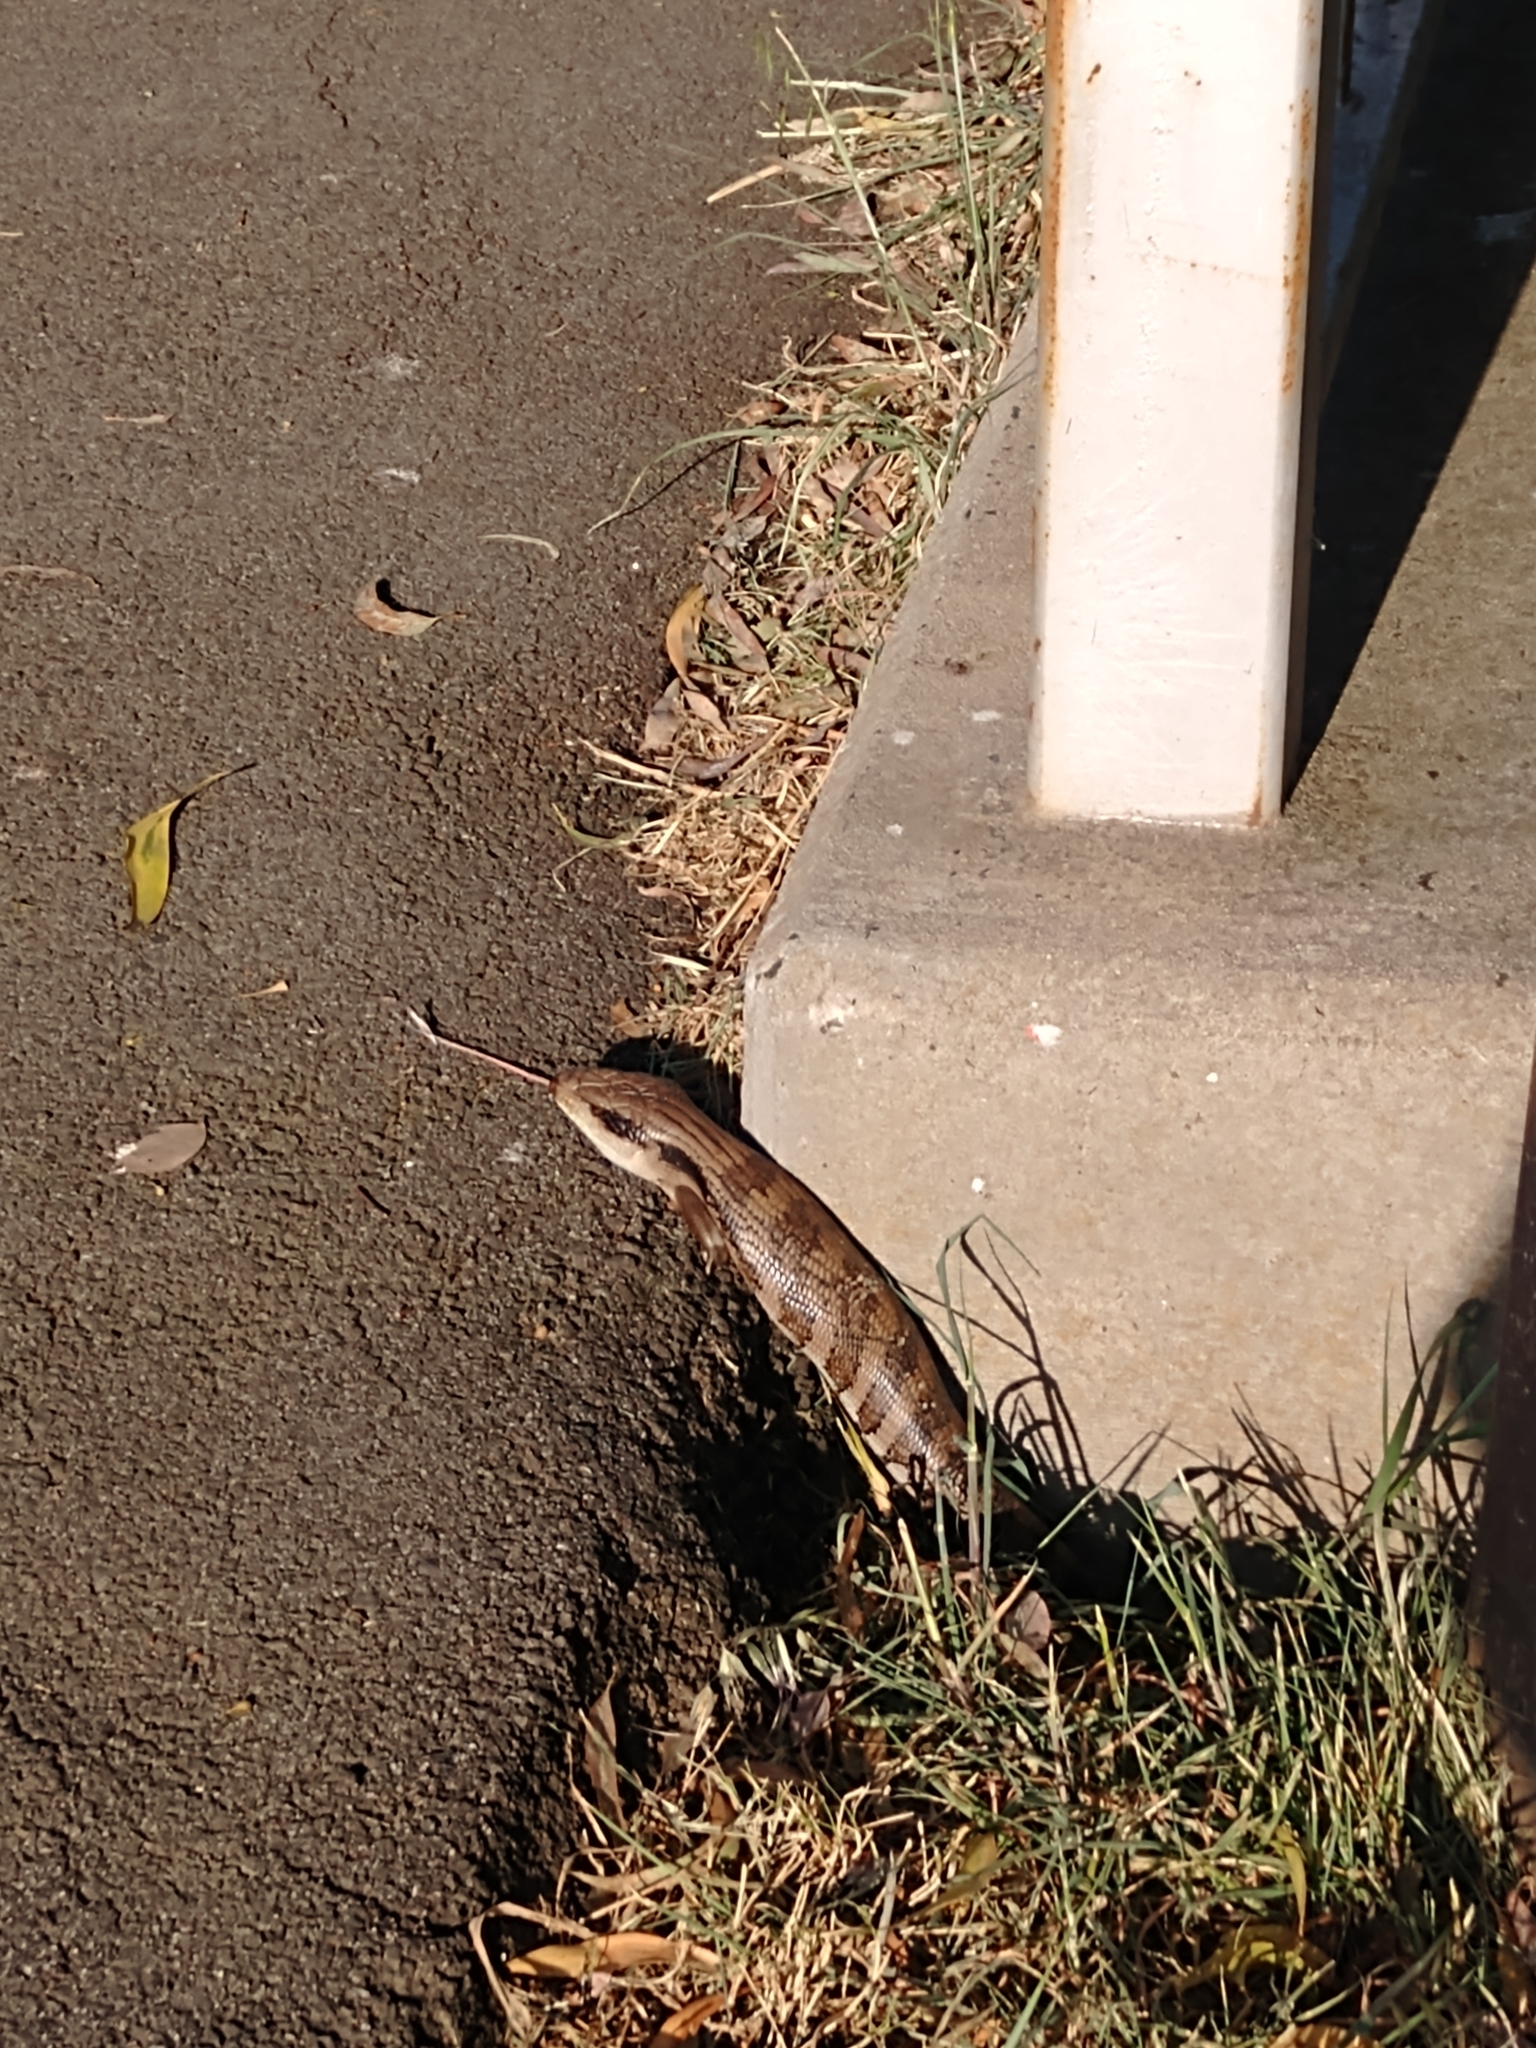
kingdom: Animalia
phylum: Chordata
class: Squamata
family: Scincidae
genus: Tiliqua
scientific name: Tiliqua scincoides
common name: Common bluetongue
